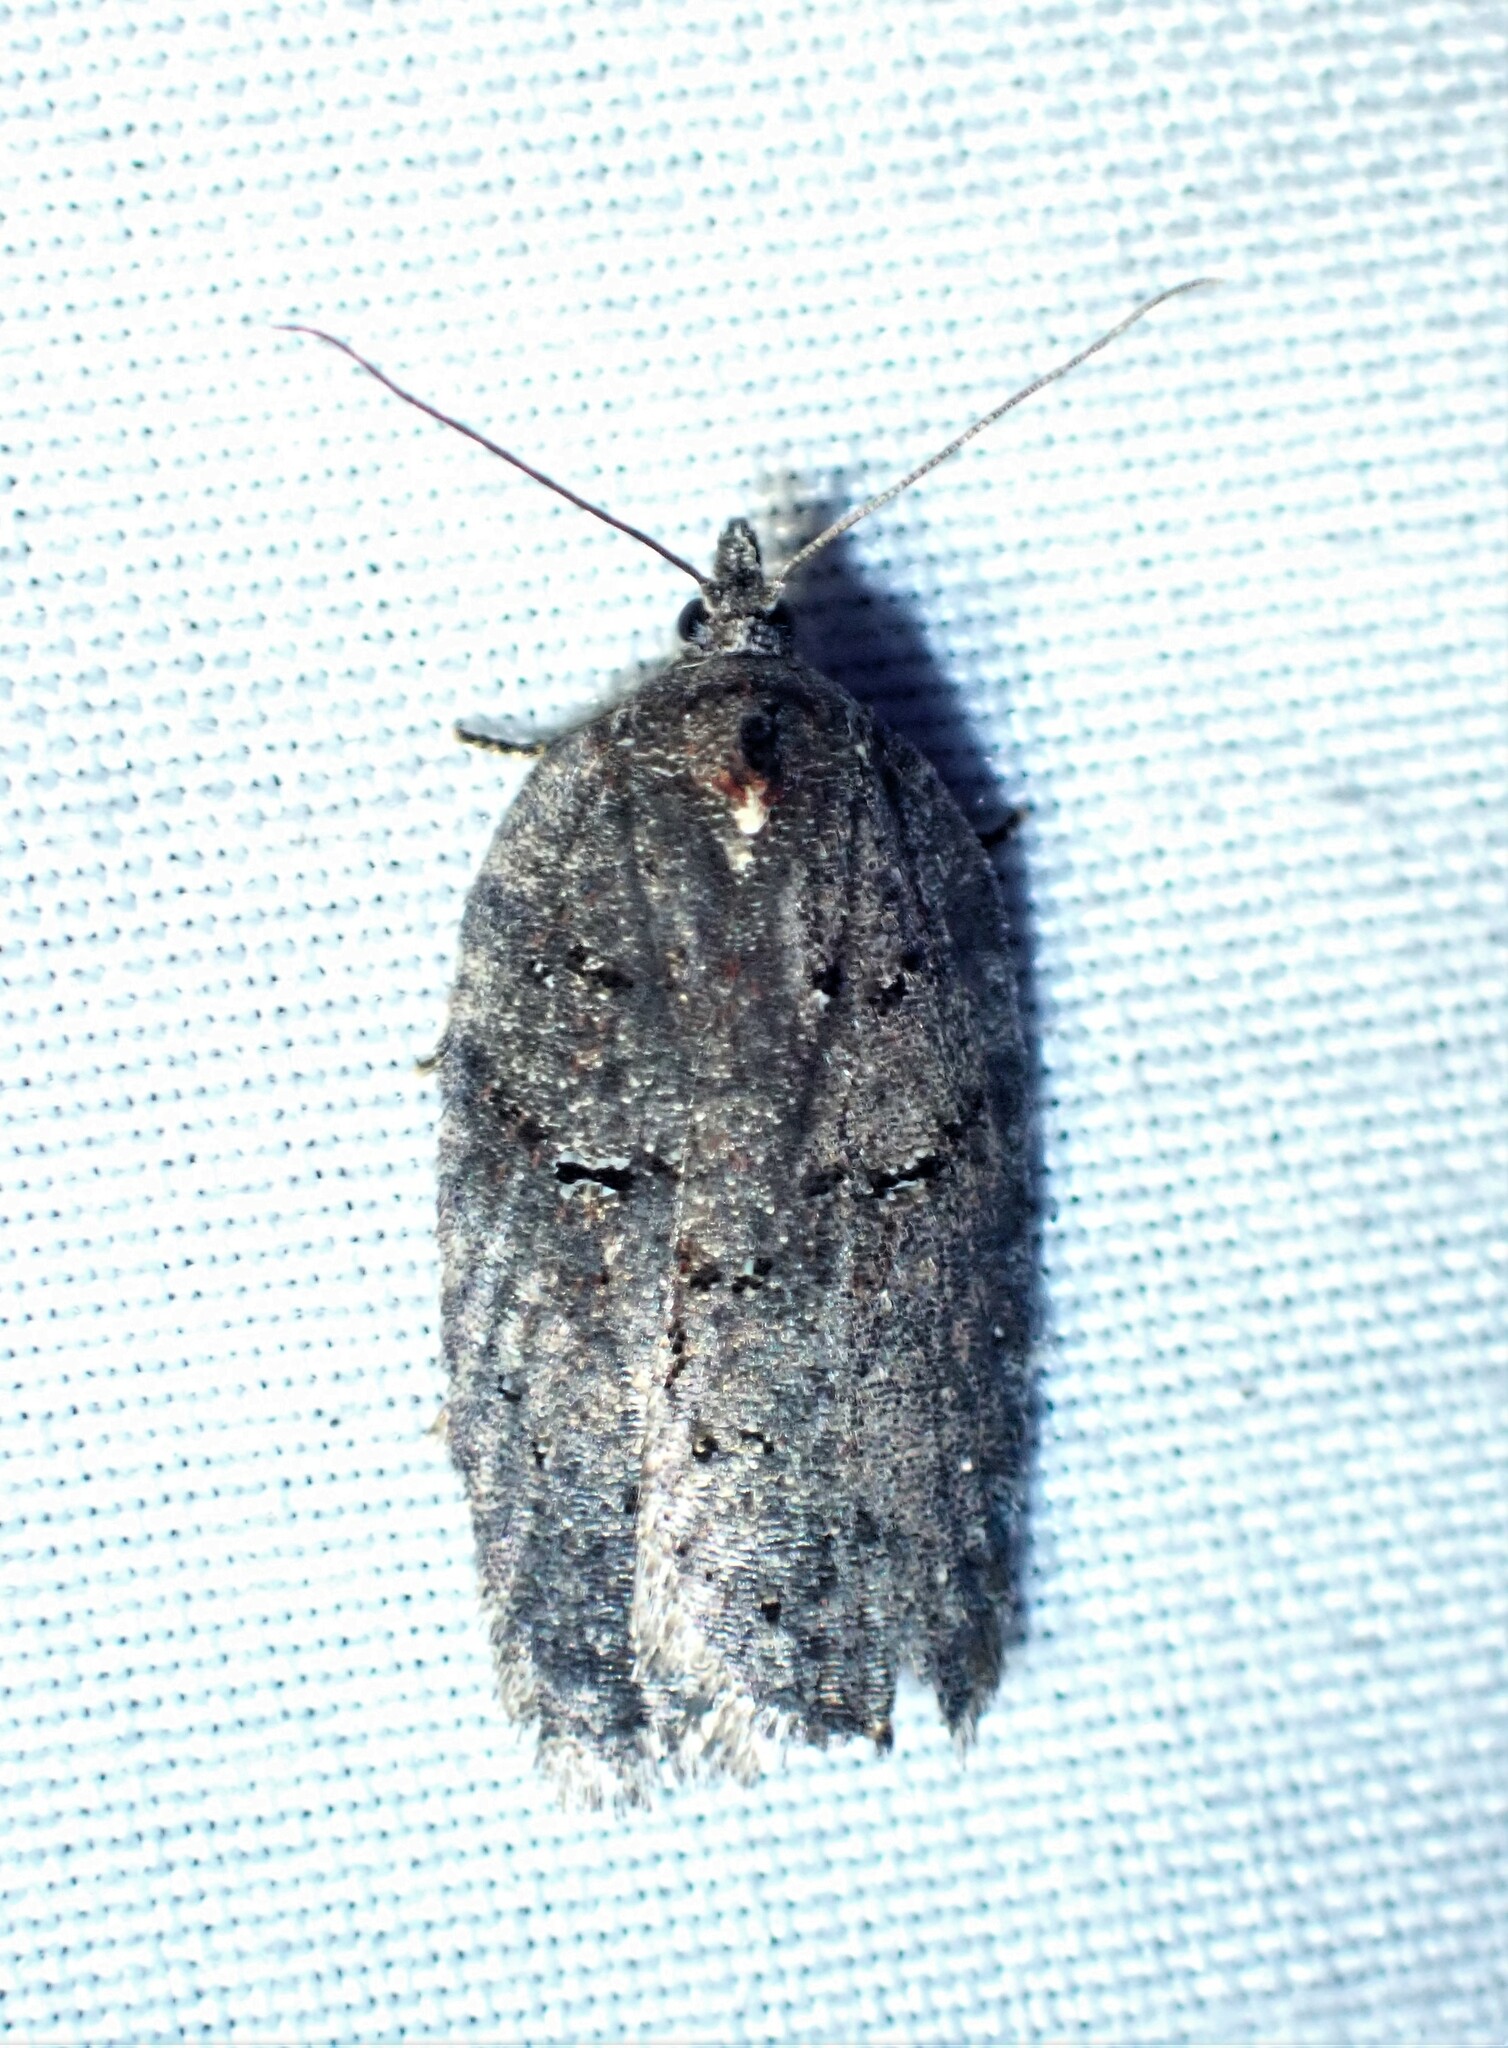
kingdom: Animalia
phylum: Arthropoda
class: Insecta
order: Lepidoptera
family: Tortricidae
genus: Acleris
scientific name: Acleris caliginosana
